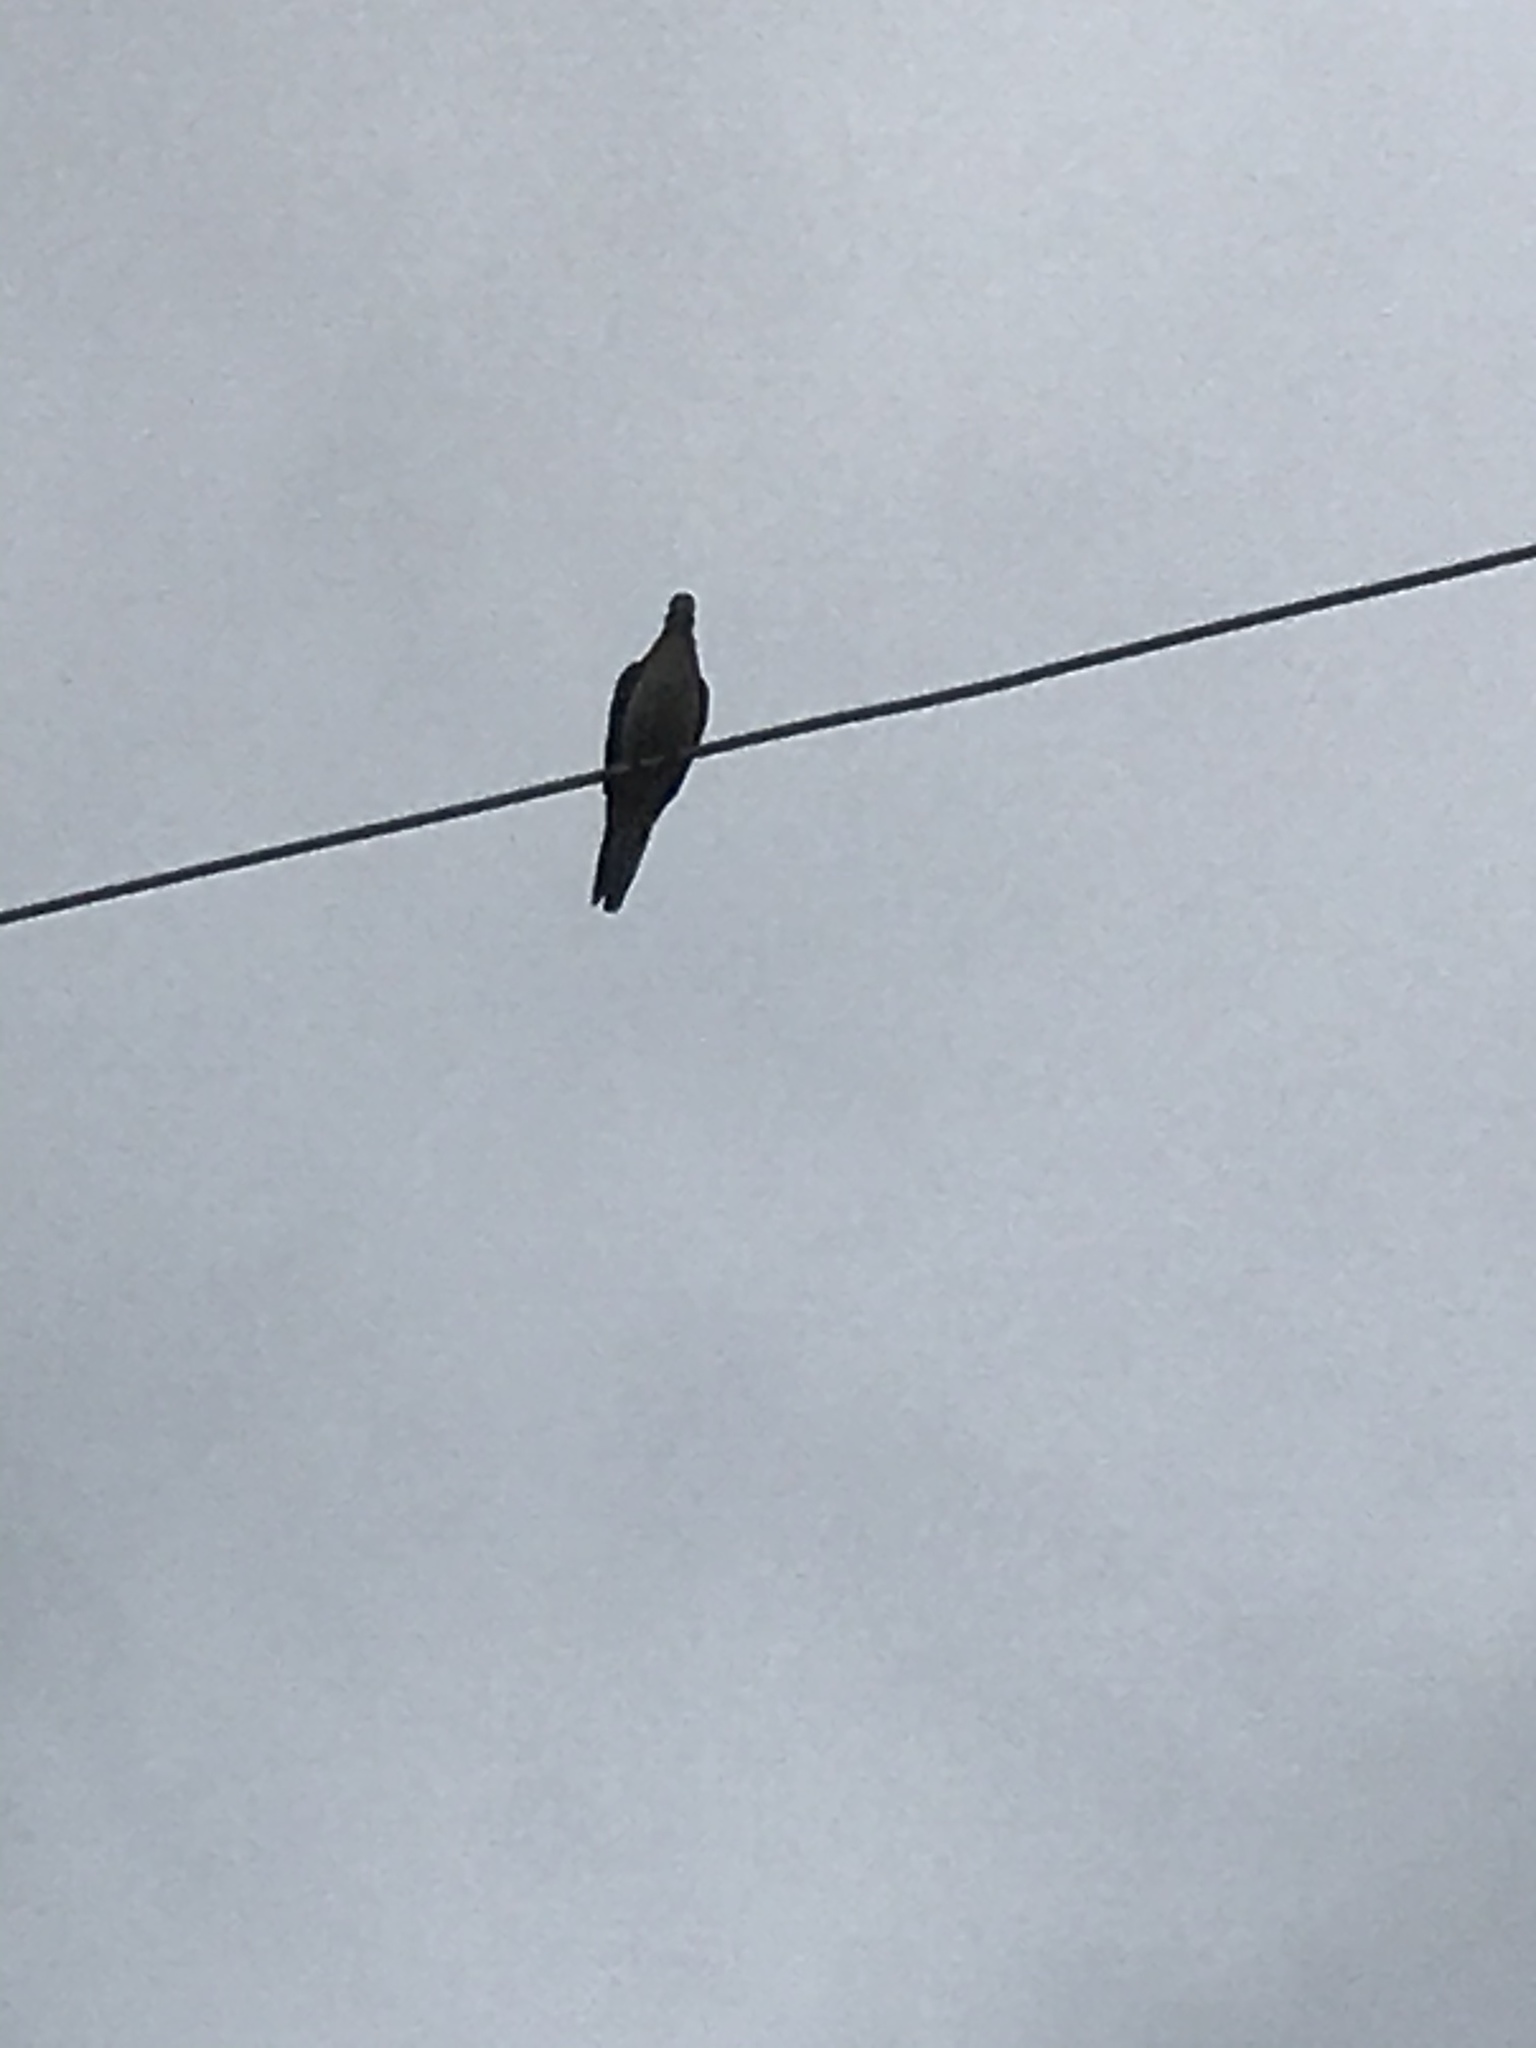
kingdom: Animalia
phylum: Chordata
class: Aves
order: Columbiformes
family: Columbidae
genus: Zenaida
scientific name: Zenaida macroura
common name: Mourning dove
